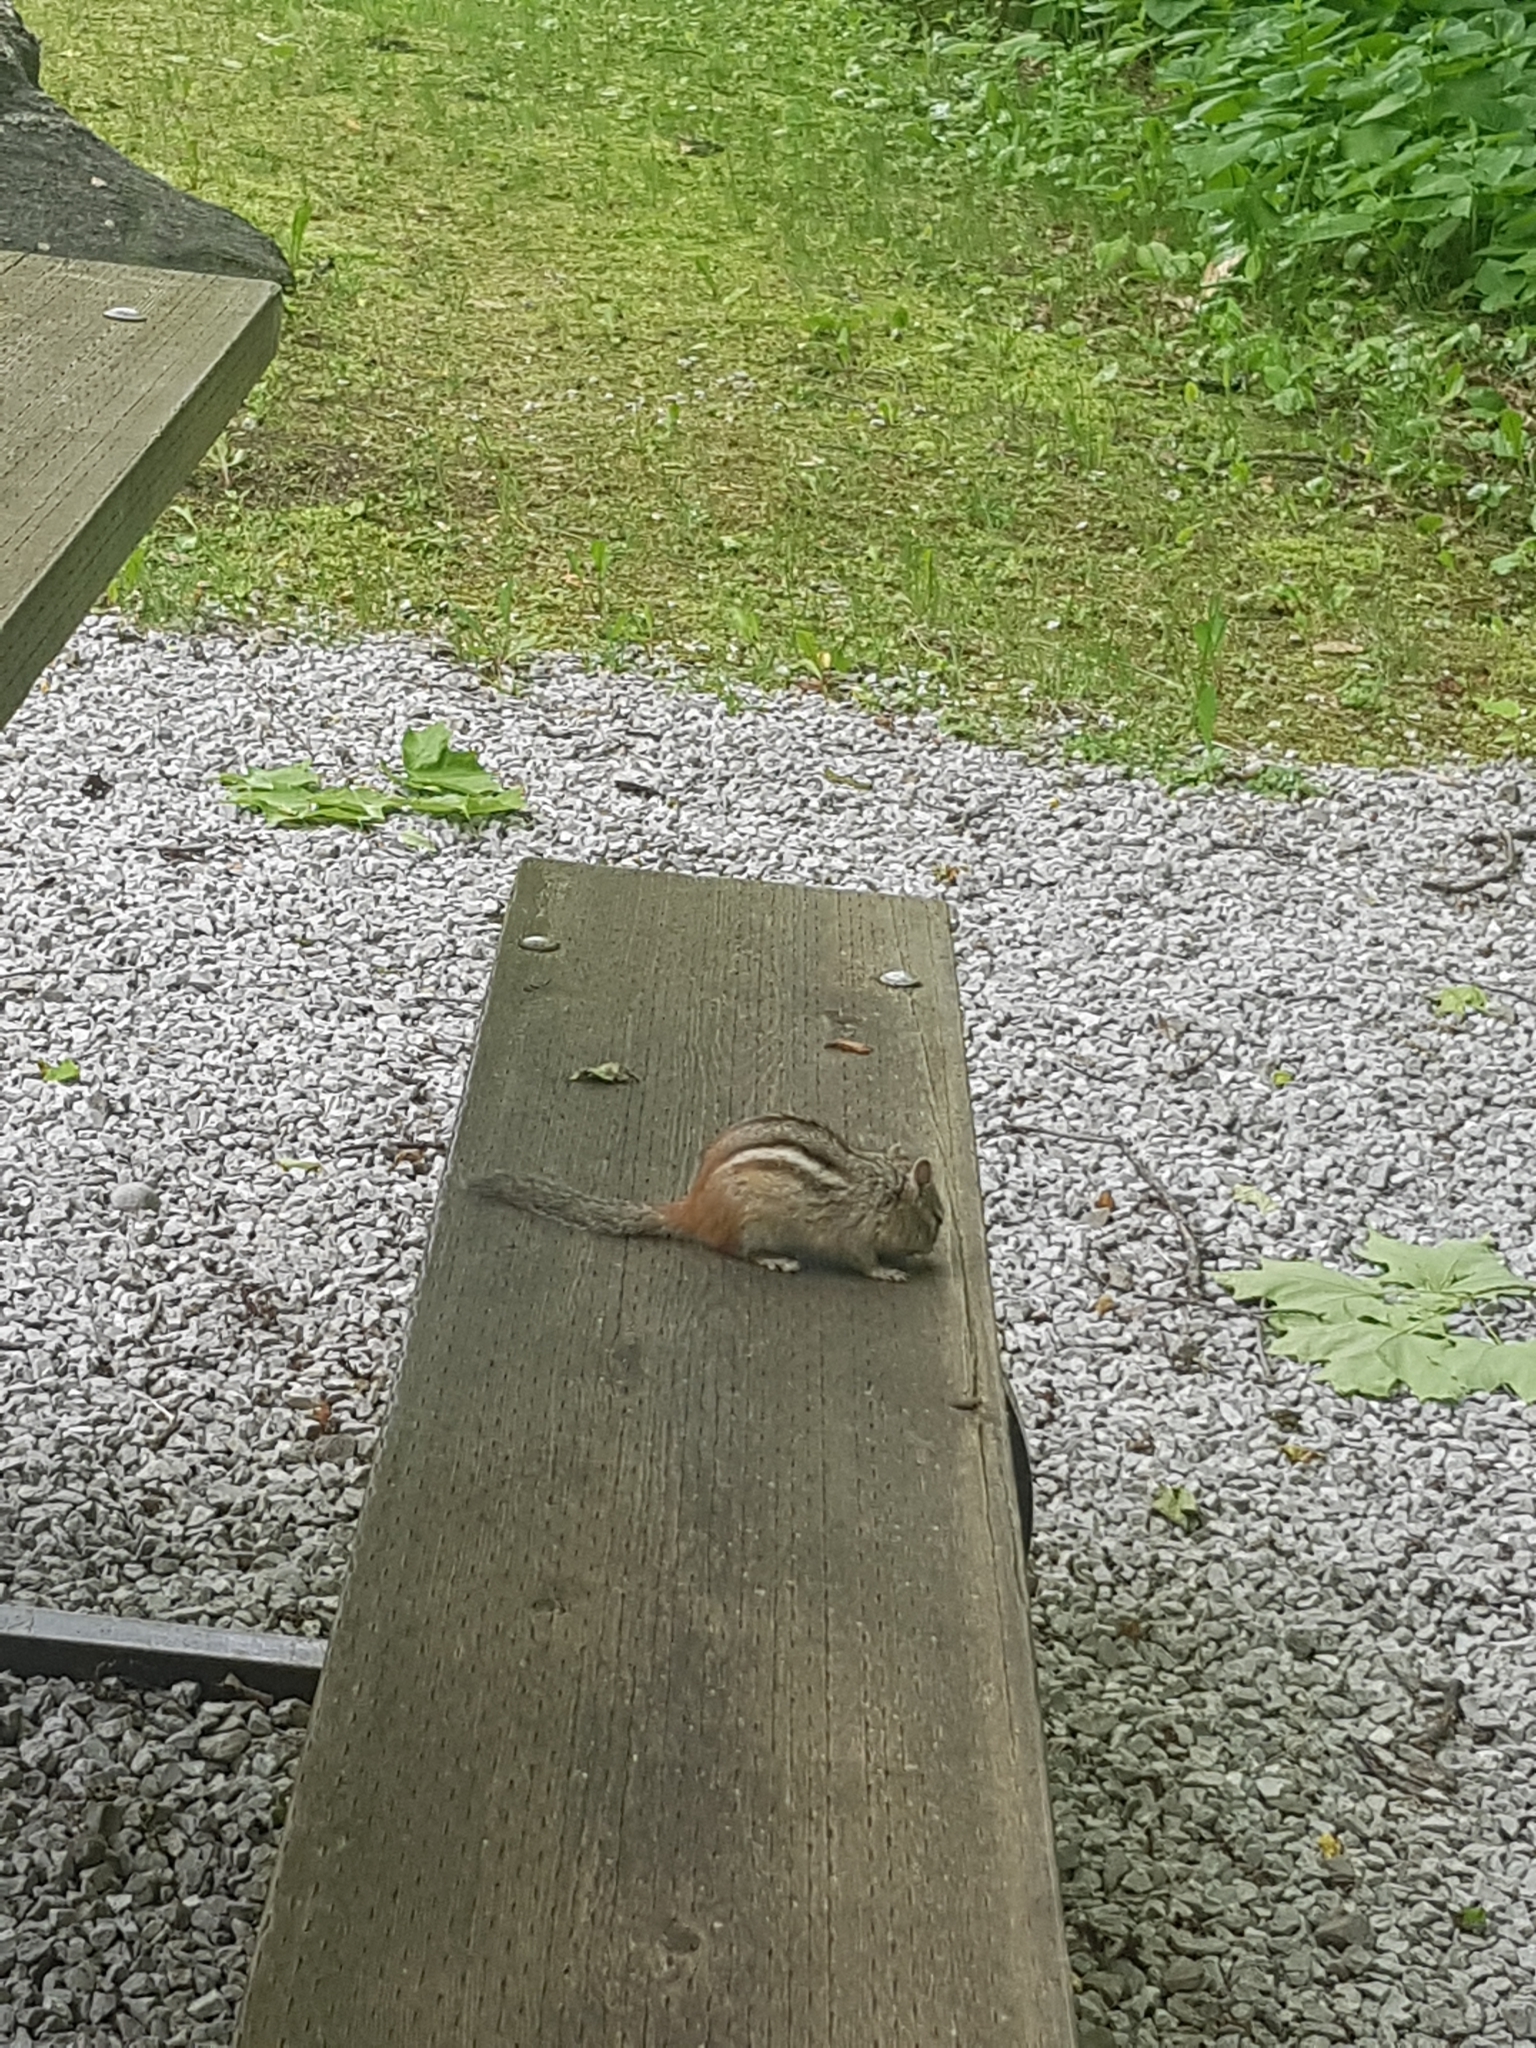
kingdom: Animalia
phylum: Chordata
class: Mammalia
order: Rodentia
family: Sciuridae
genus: Tamias
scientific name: Tamias striatus
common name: Eastern chipmunk
